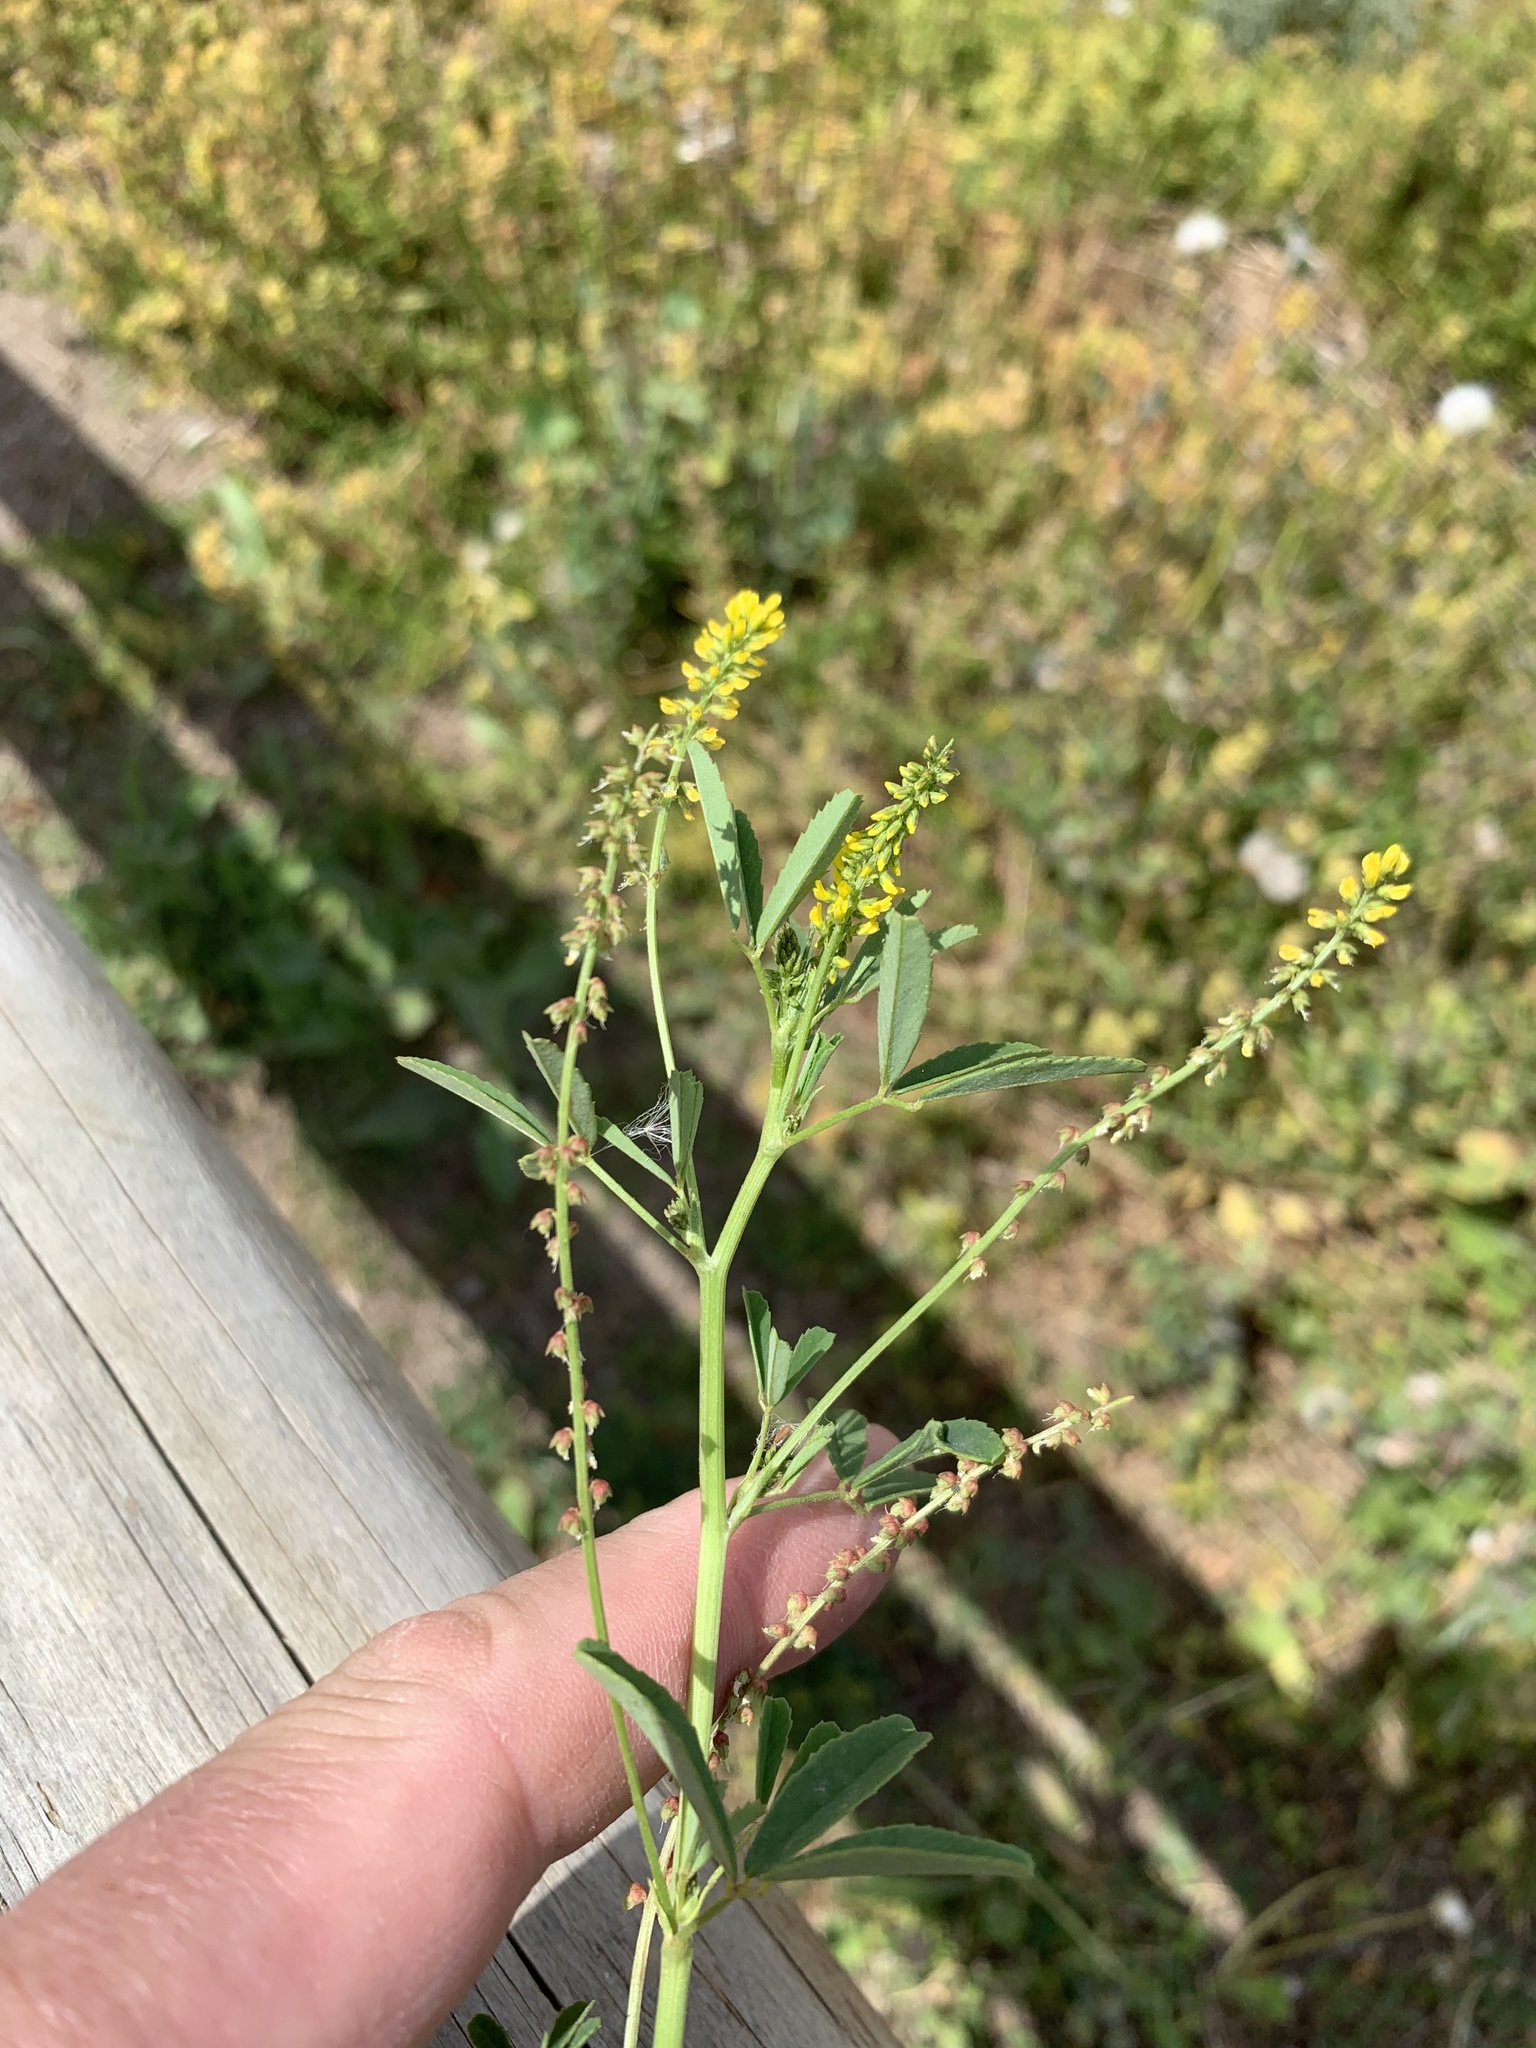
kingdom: Plantae
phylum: Tracheophyta
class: Magnoliopsida
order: Fabales
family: Fabaceae
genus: Melilotus
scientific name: Melilotus indicus
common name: Small melilot
